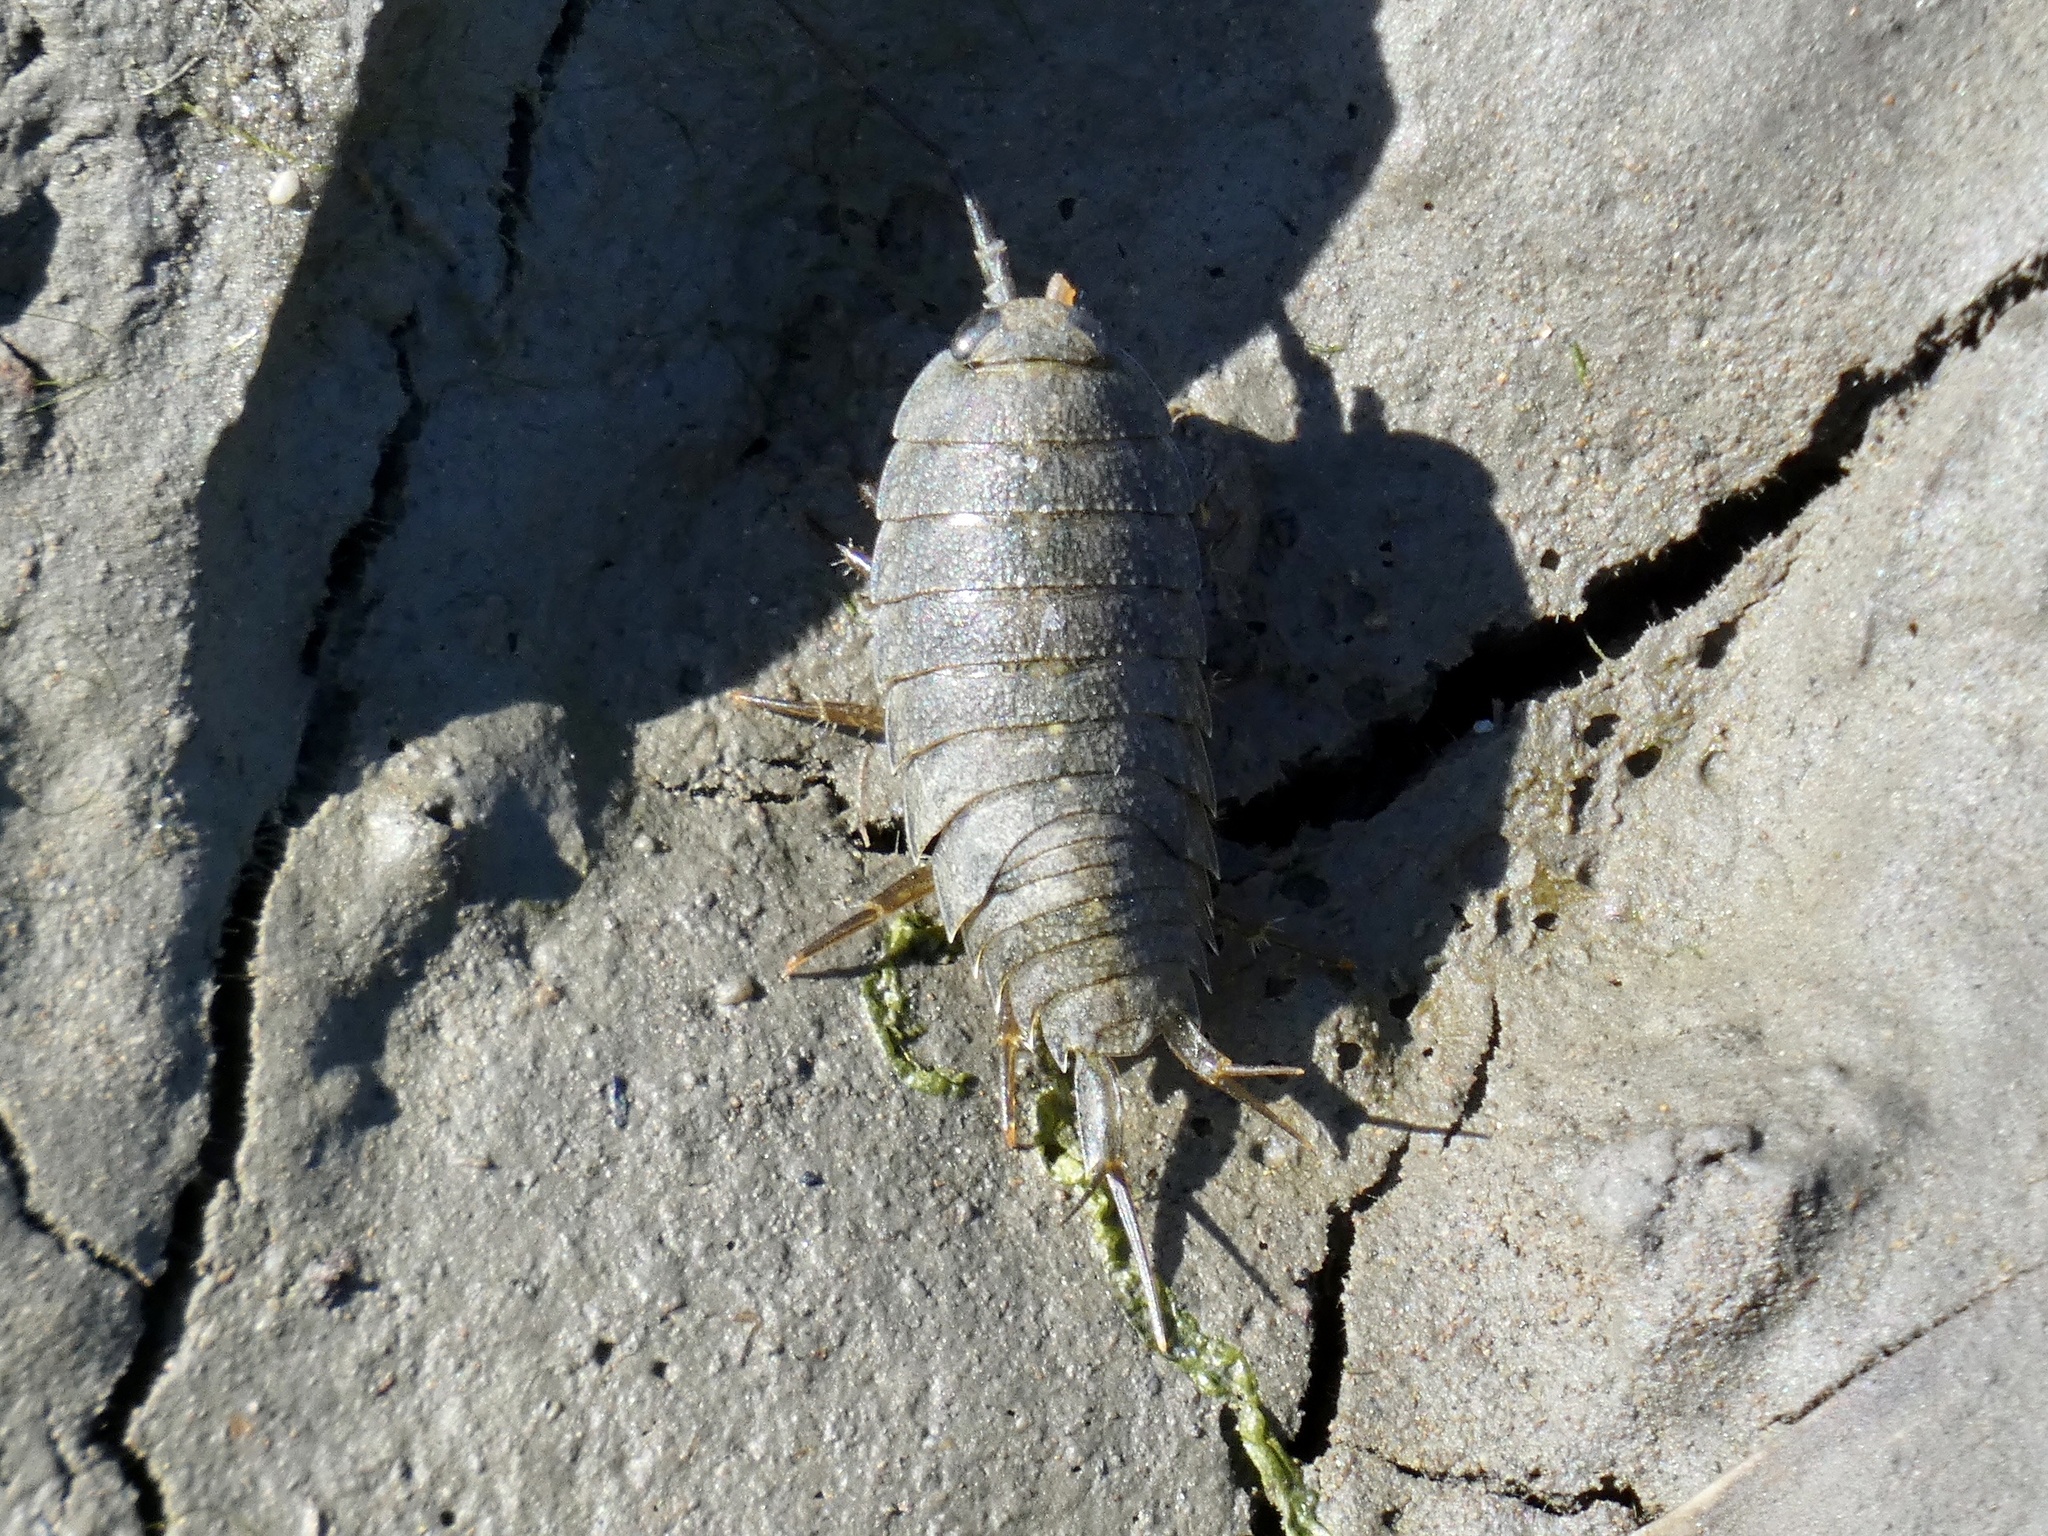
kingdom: Animalia
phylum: Arthropoda
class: Malacostraca
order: Isopoda
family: Ligiidae
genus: Ligia
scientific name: Ligia occidentalis
